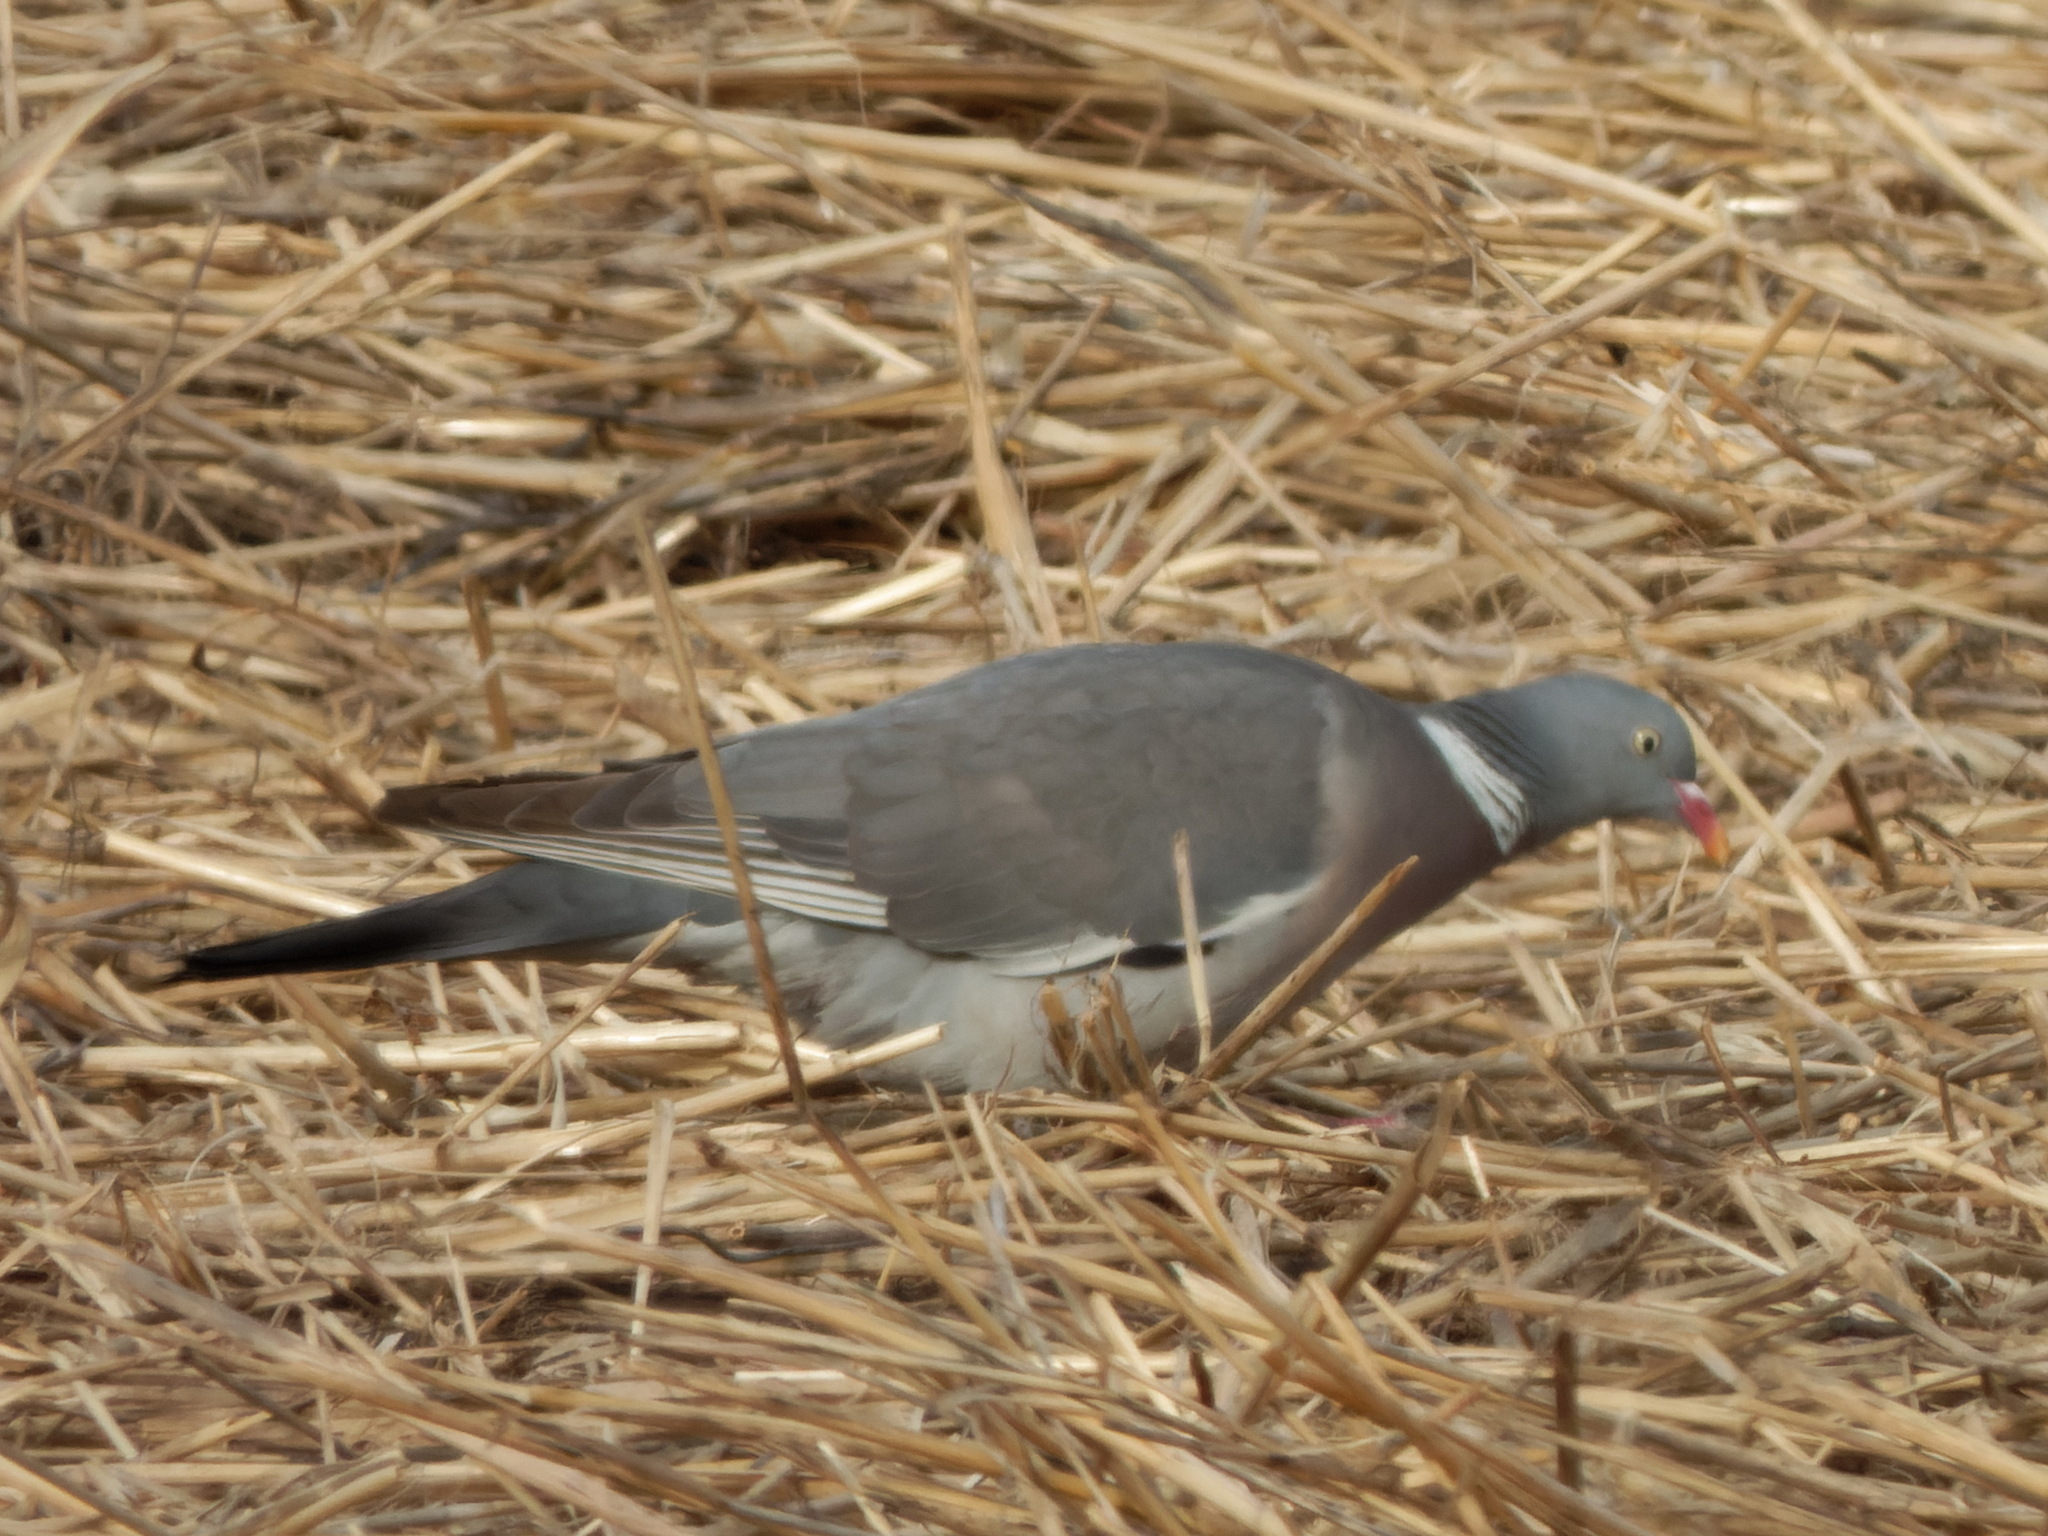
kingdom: Animalia
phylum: Chordata
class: Aves
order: Columbiformes
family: Columbidae
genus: Columba
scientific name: Columba palumbus
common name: Common wood pigeon
